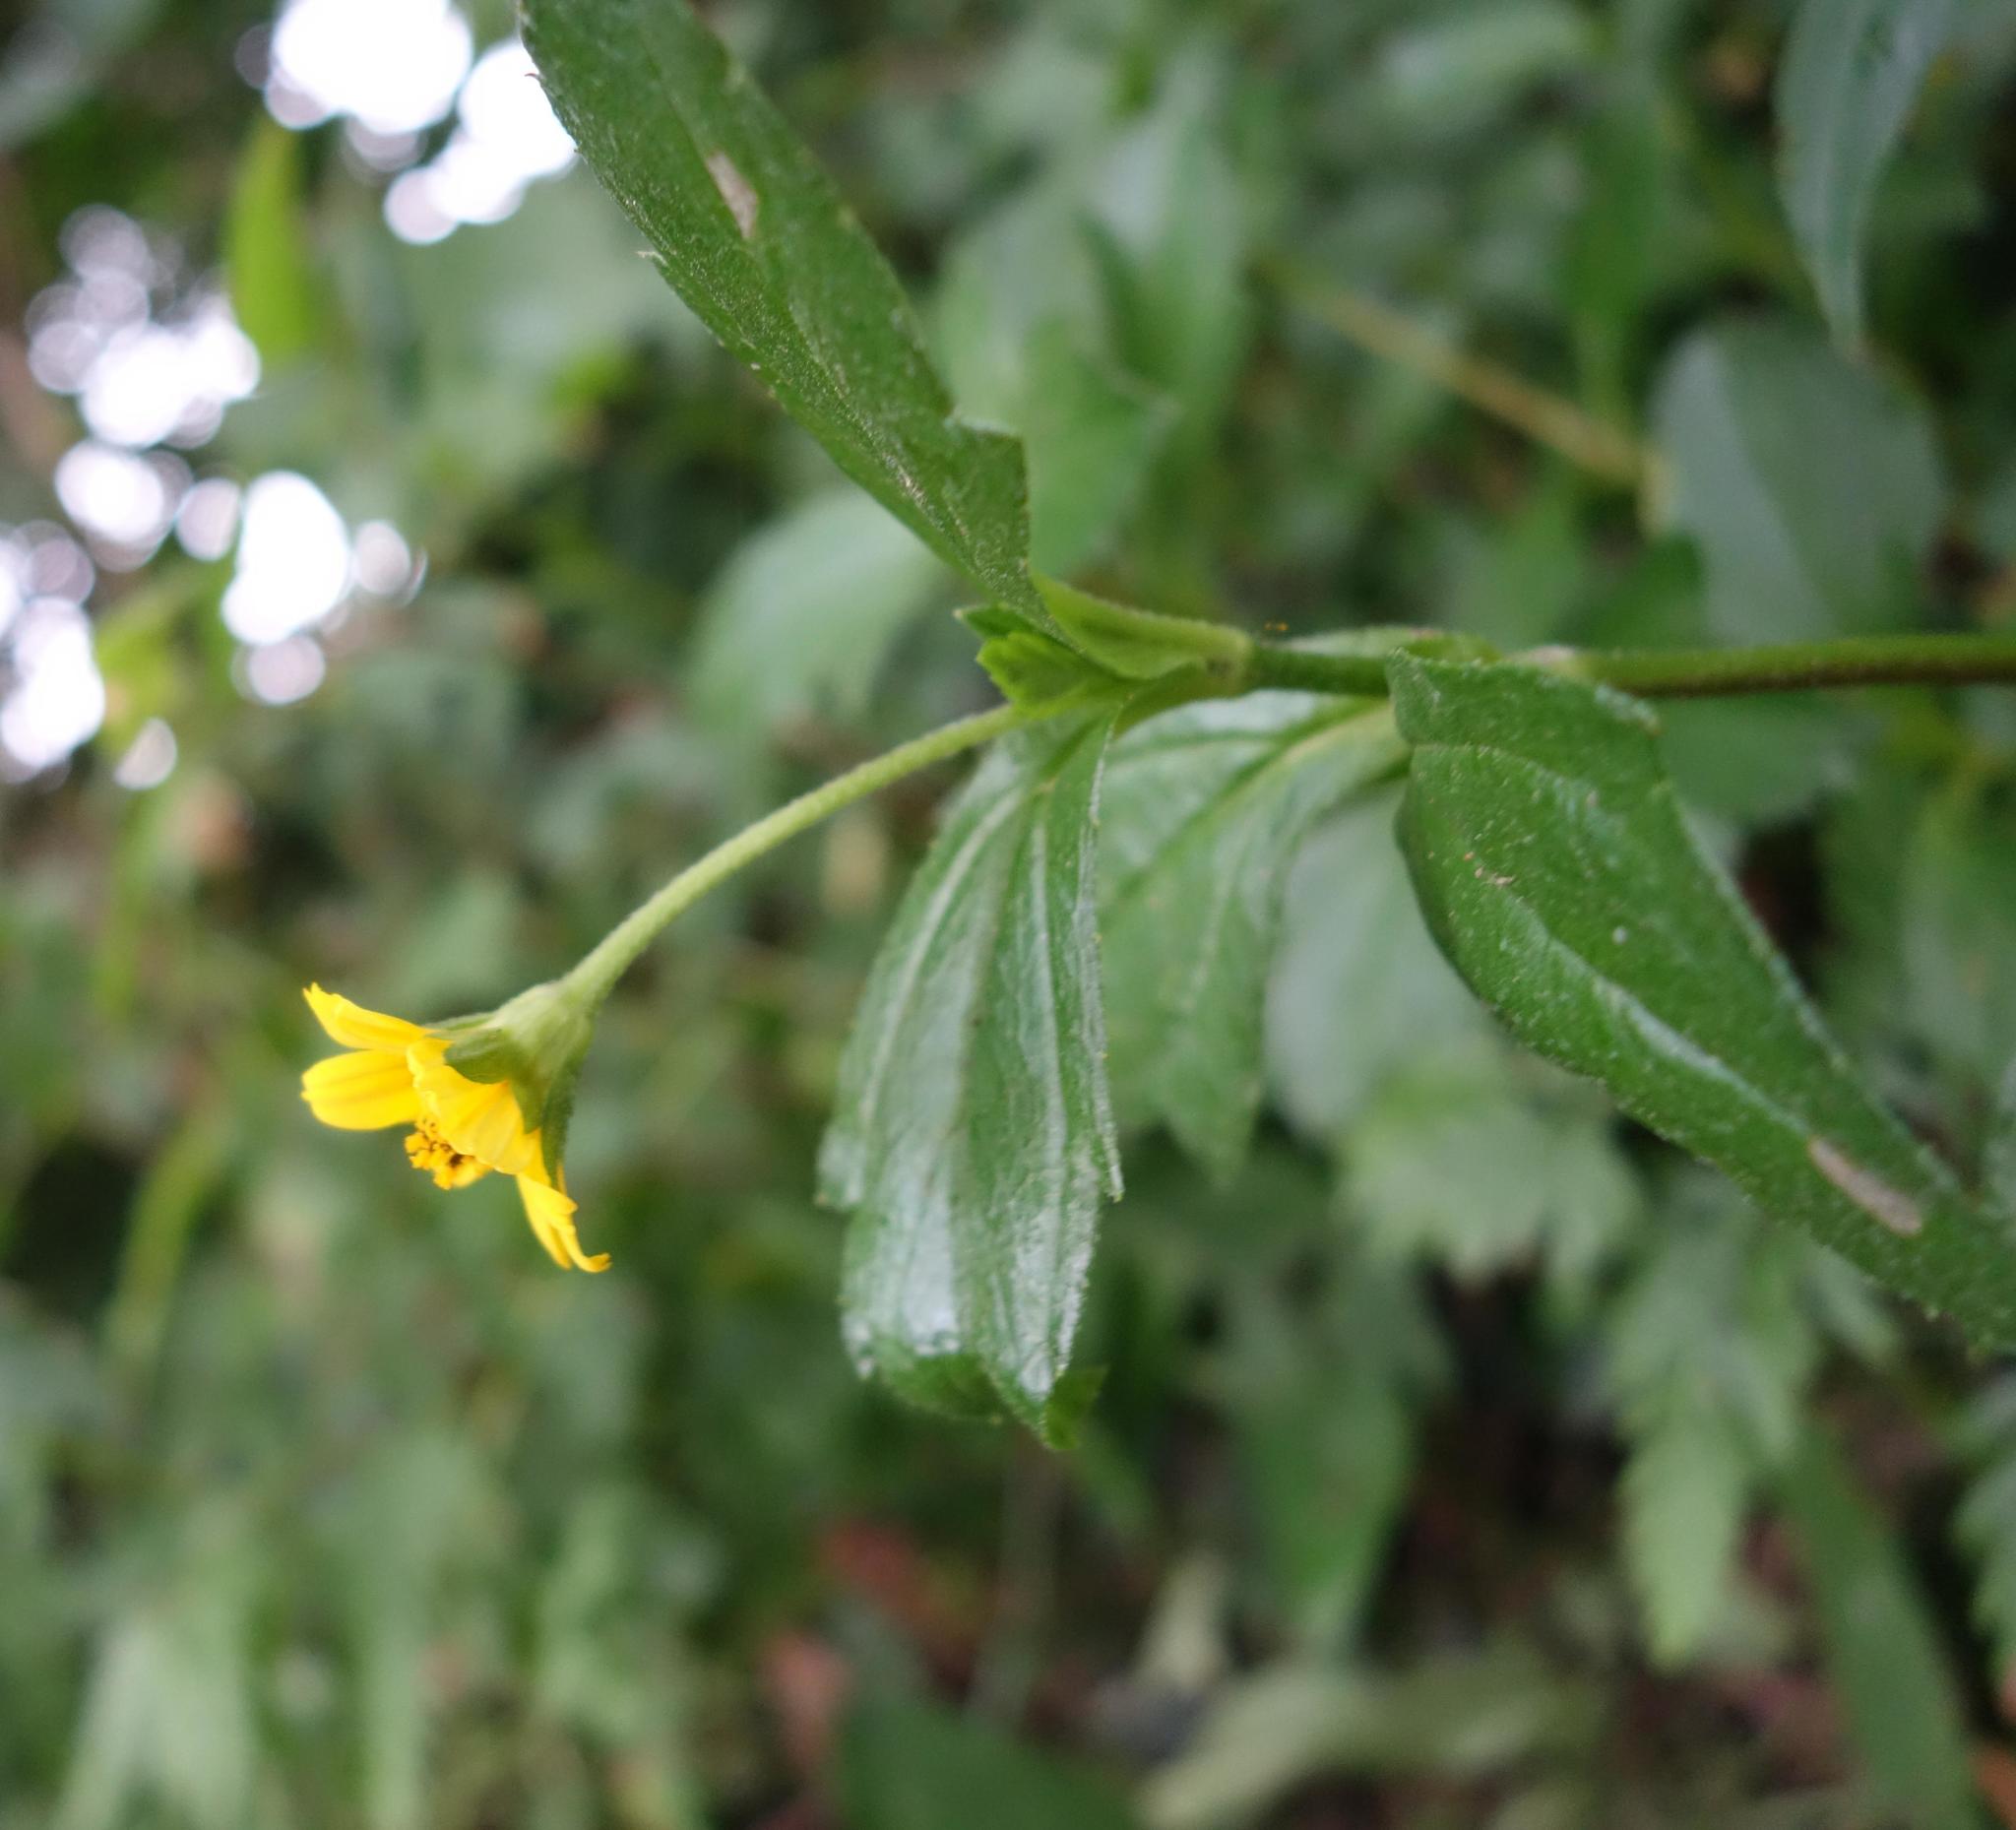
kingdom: Plantae
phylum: Tracheophyta
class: Magnoliopsida
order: Asterales
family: Asteraceae
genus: Sphagneticola
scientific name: Sphagneticola trilobata
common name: Bay biscayne creeping-oxeye
